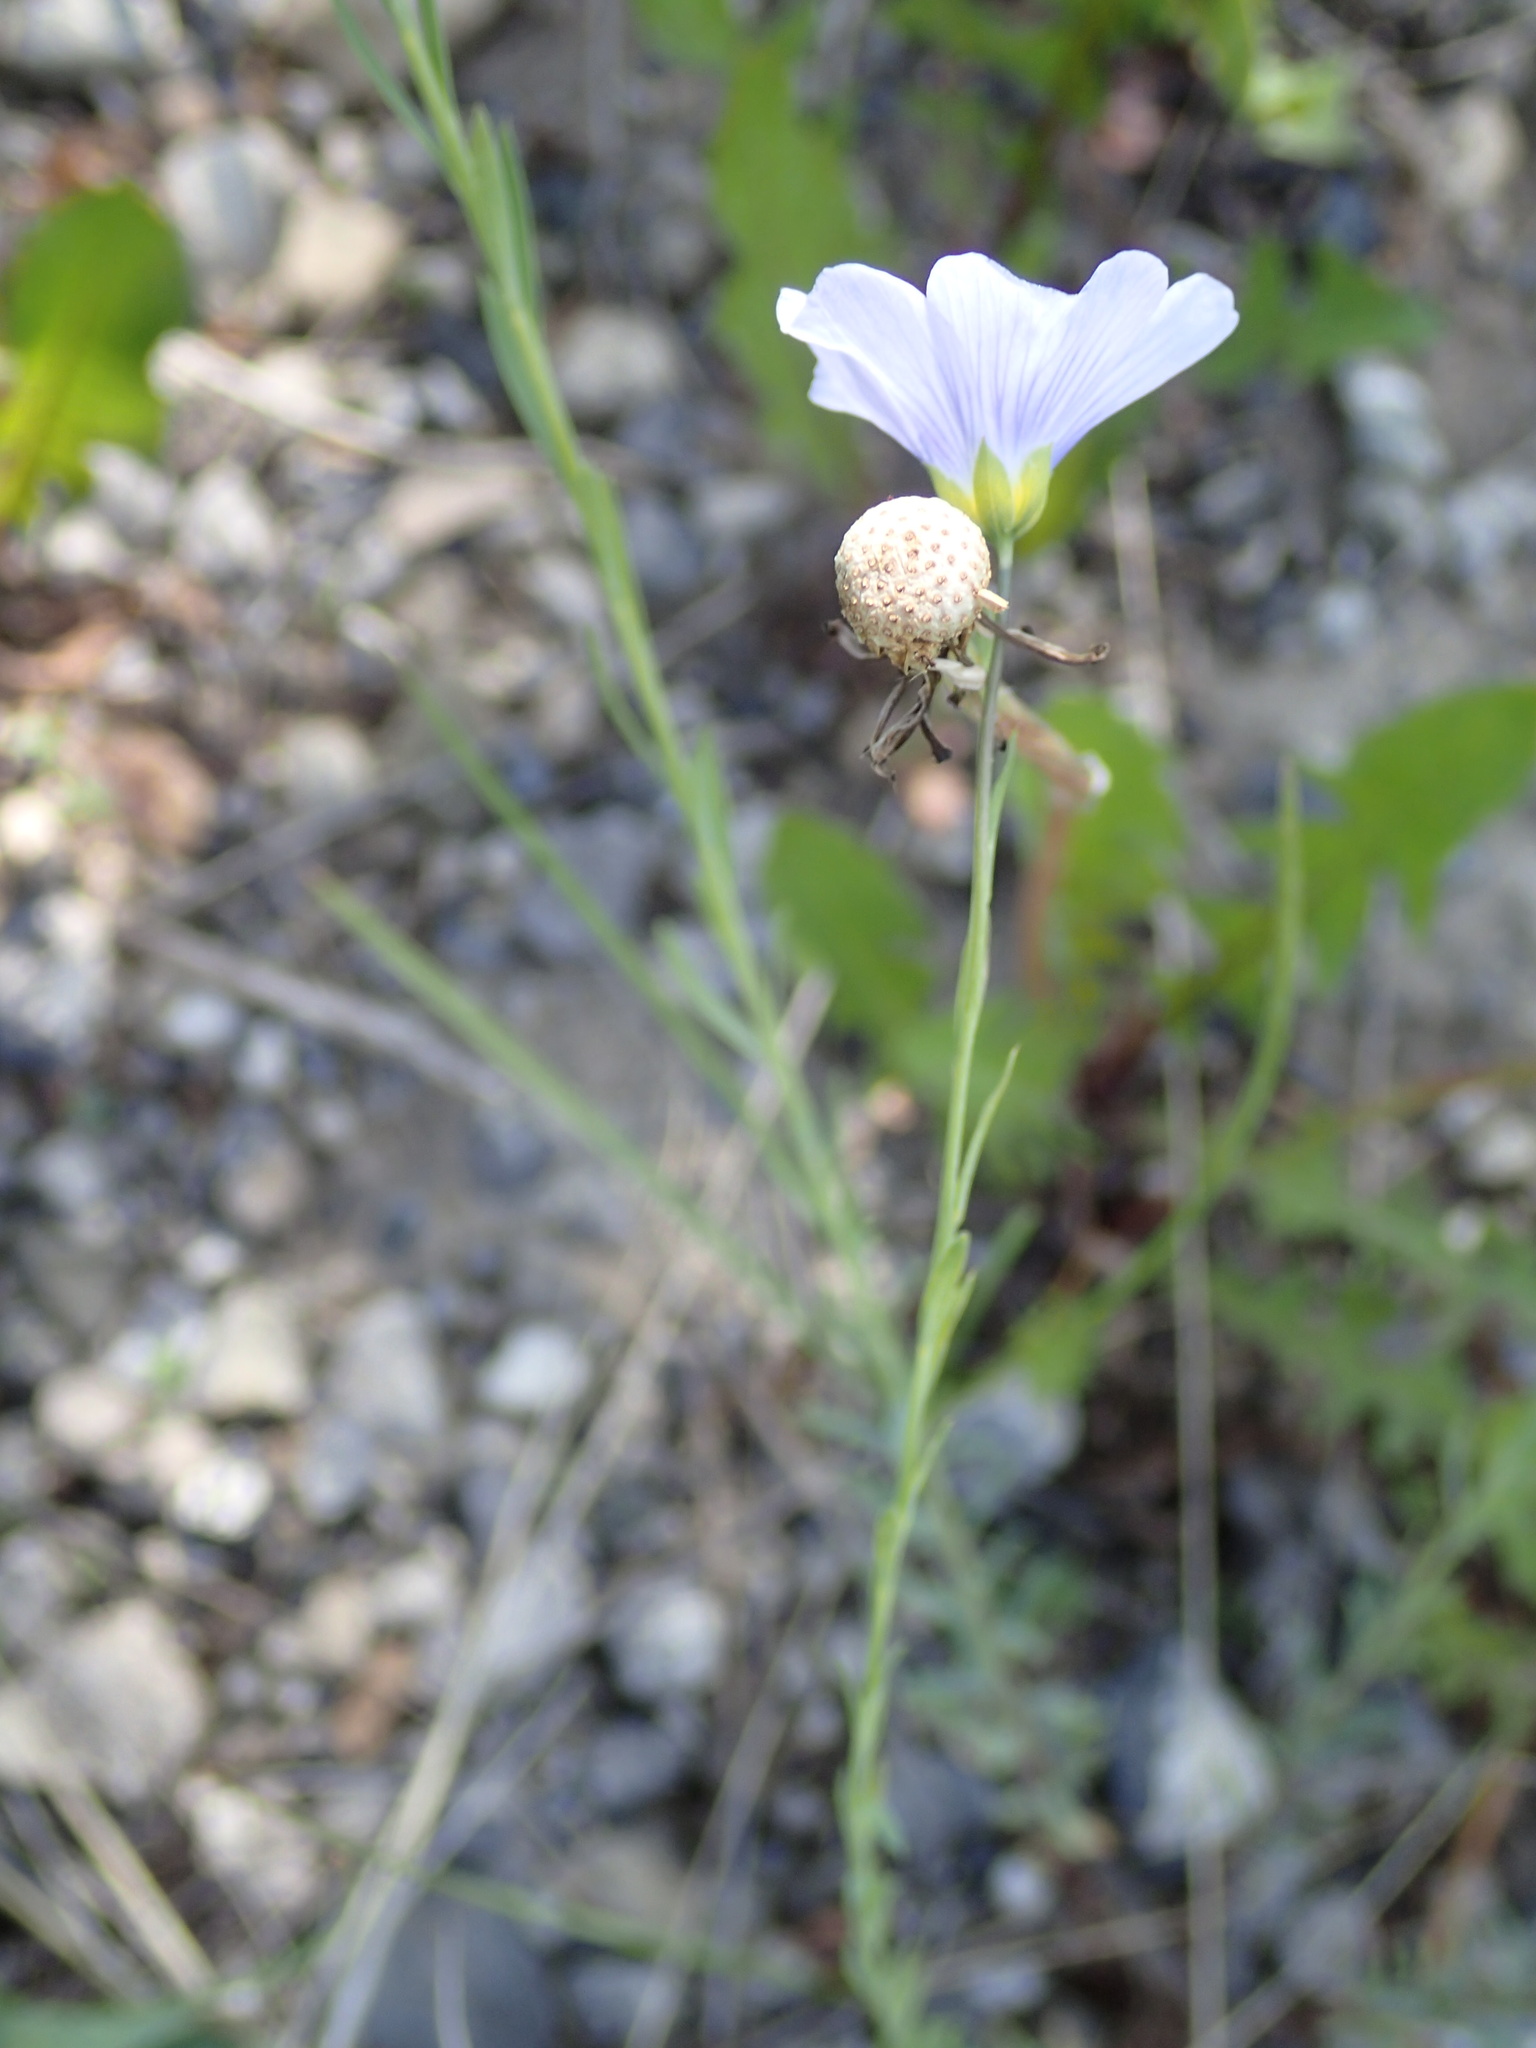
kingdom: Plantae
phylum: Tracheophyta
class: Magnoliopsida
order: Malpighiales
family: Linaceae
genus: Linum
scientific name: Linum usitatissimum
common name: Flax
